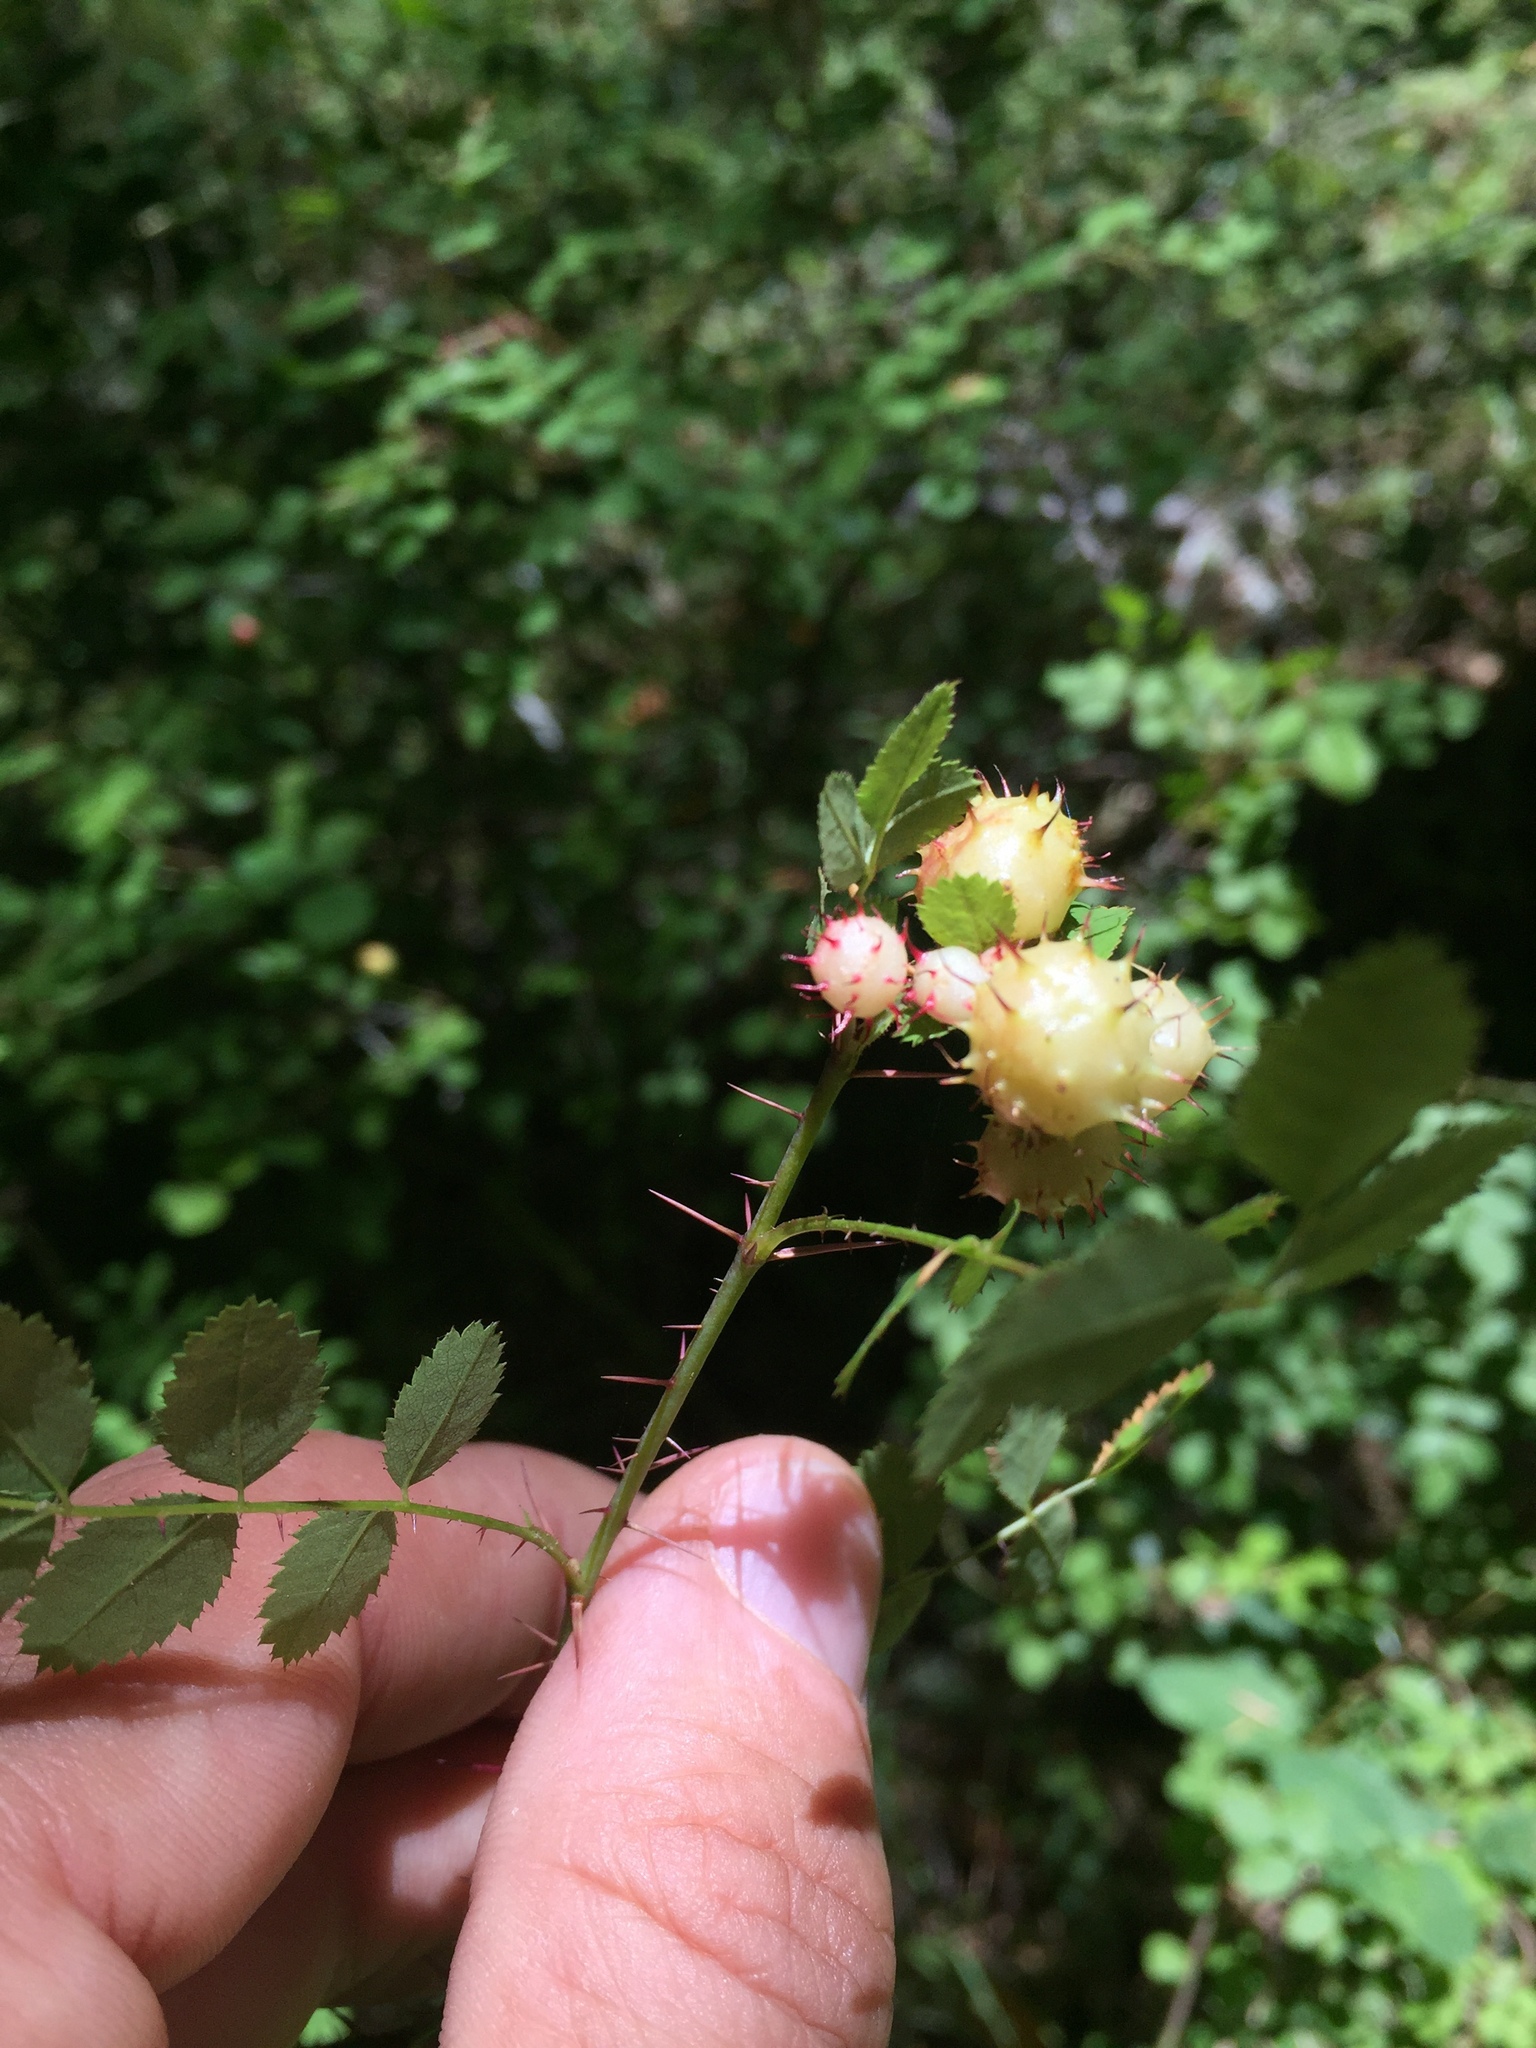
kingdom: Animalia
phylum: Arthropoda
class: Insecta
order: Hymenoptera
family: Cynipidae
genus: Diplolepis
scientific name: Diplolepis polita
